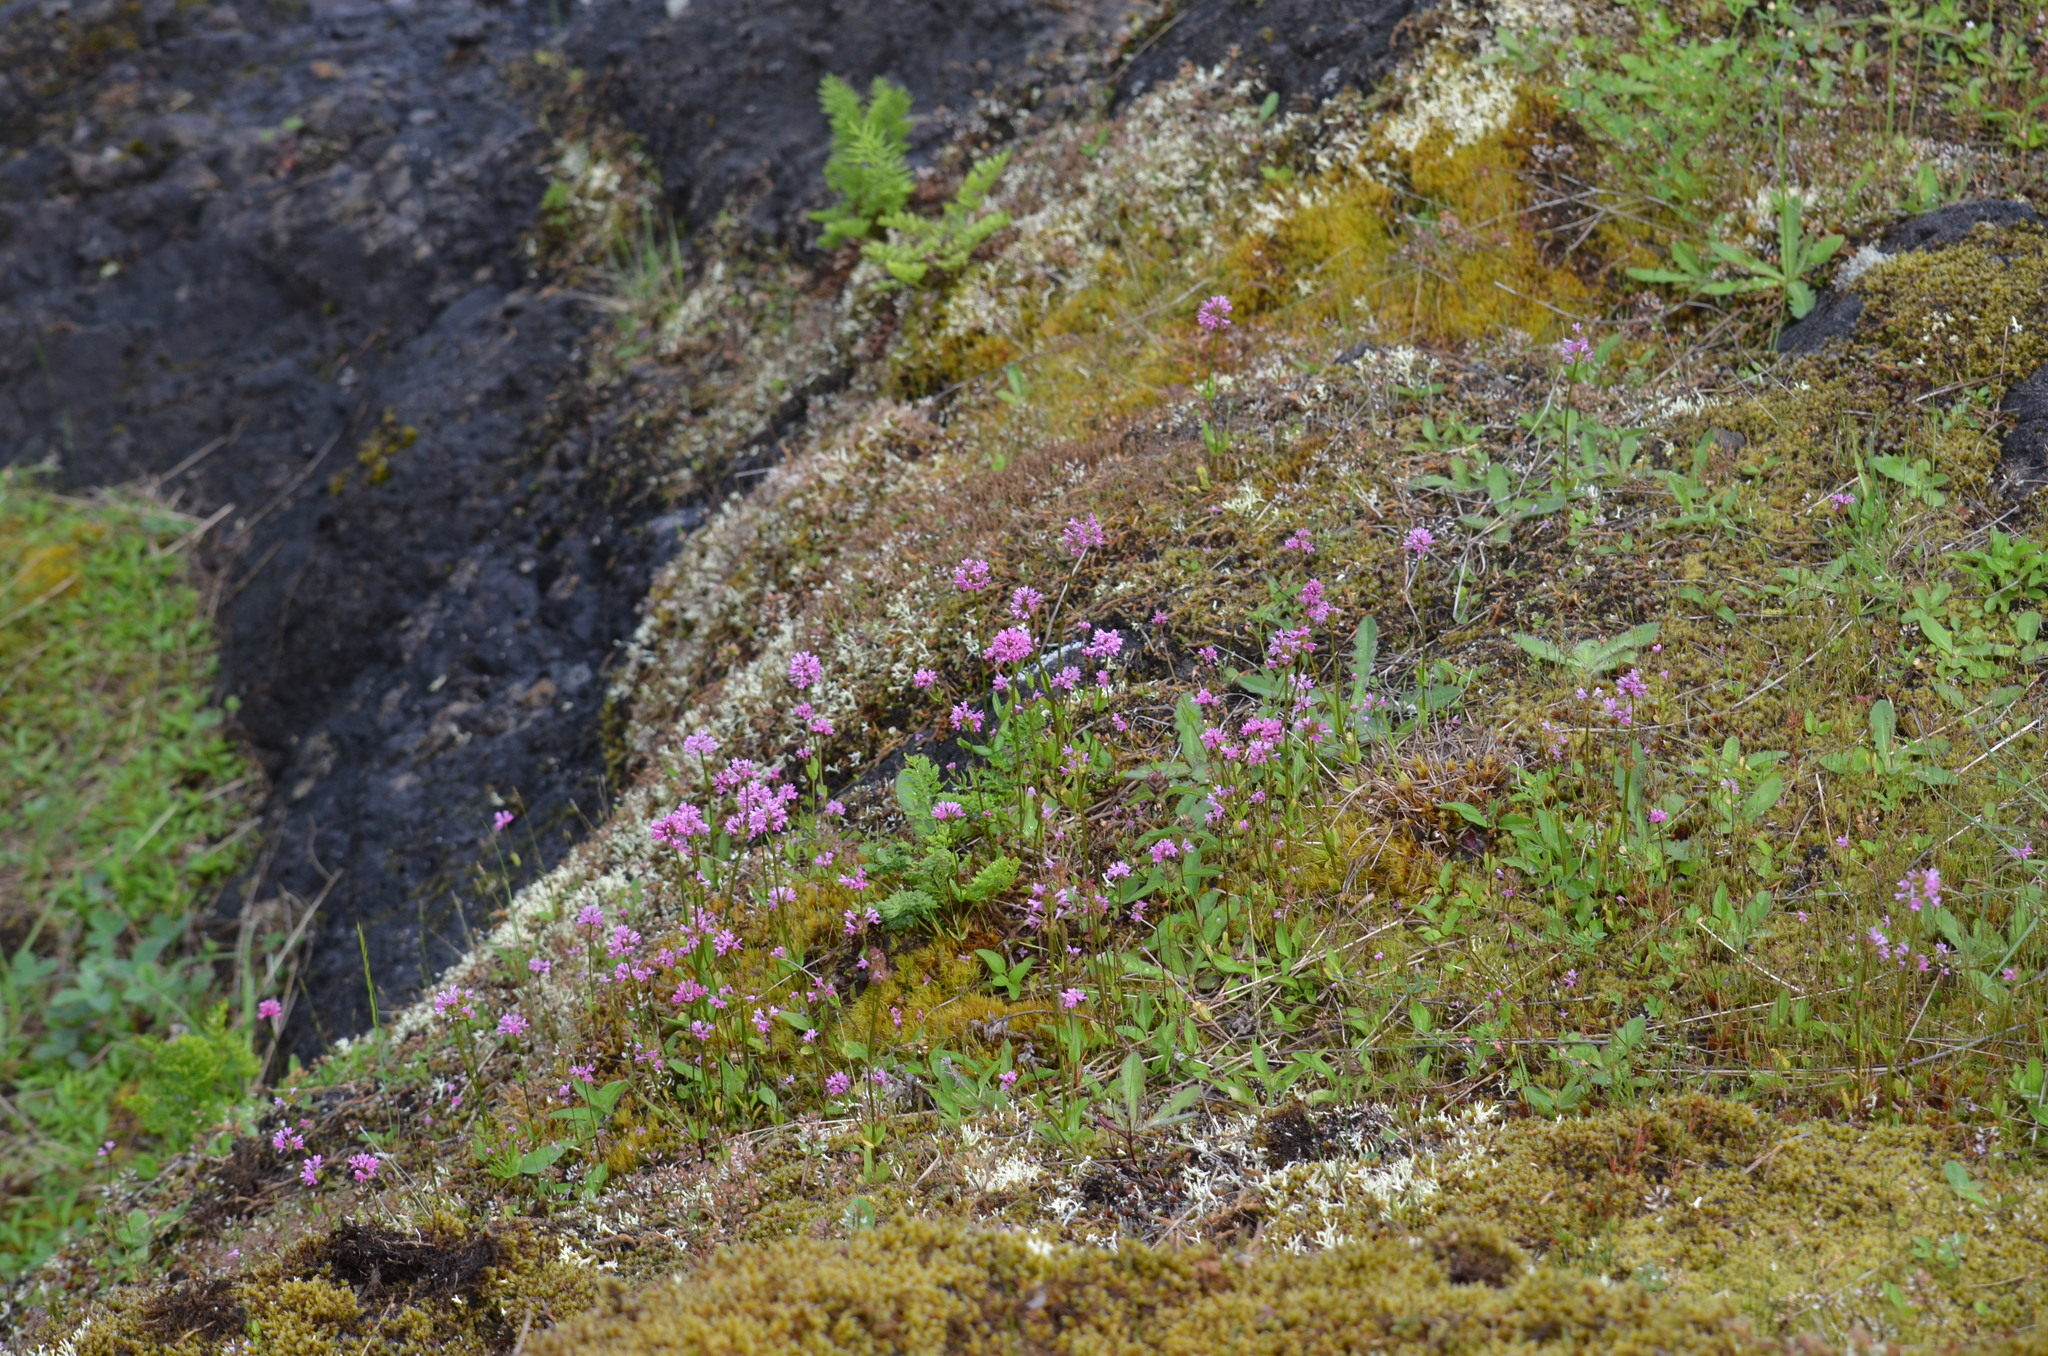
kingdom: Plantae
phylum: Tracheophyta
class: Magnoliopsida
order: Dipsacales
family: Caprifoliaceae
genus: Plectritis
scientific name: Plectritis congesta
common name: Pink plectritis
